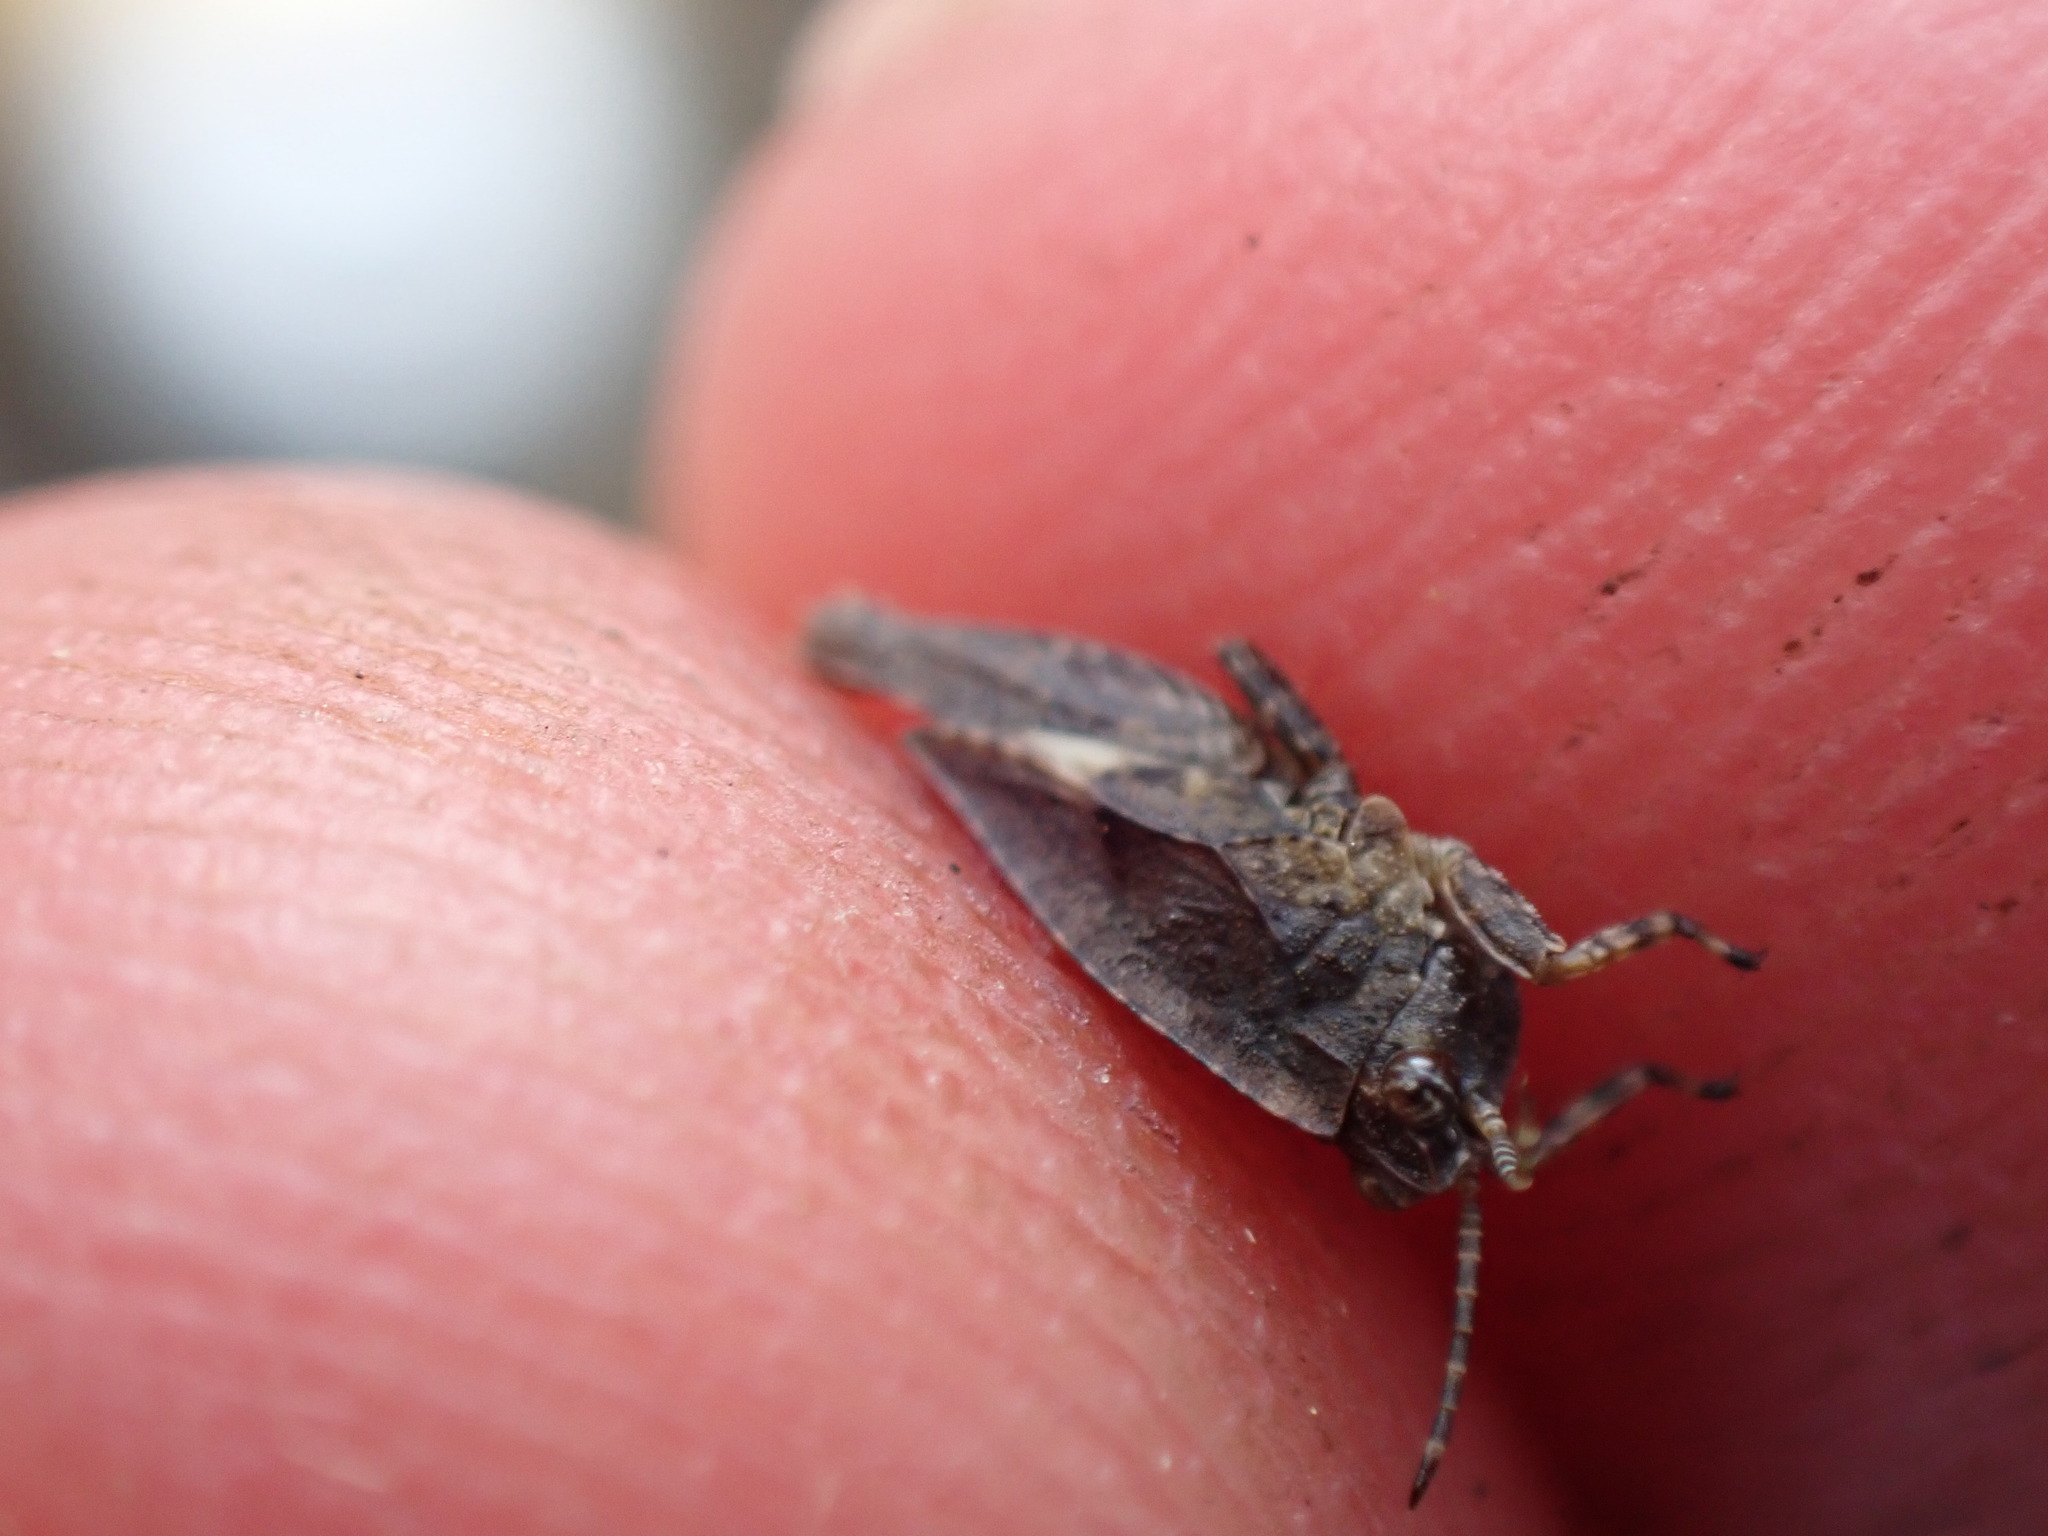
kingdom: Animalia
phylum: Arthropoda
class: Insecta
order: Orthoptera
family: Tetrigidae
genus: Tetrix
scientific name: Tetrix
